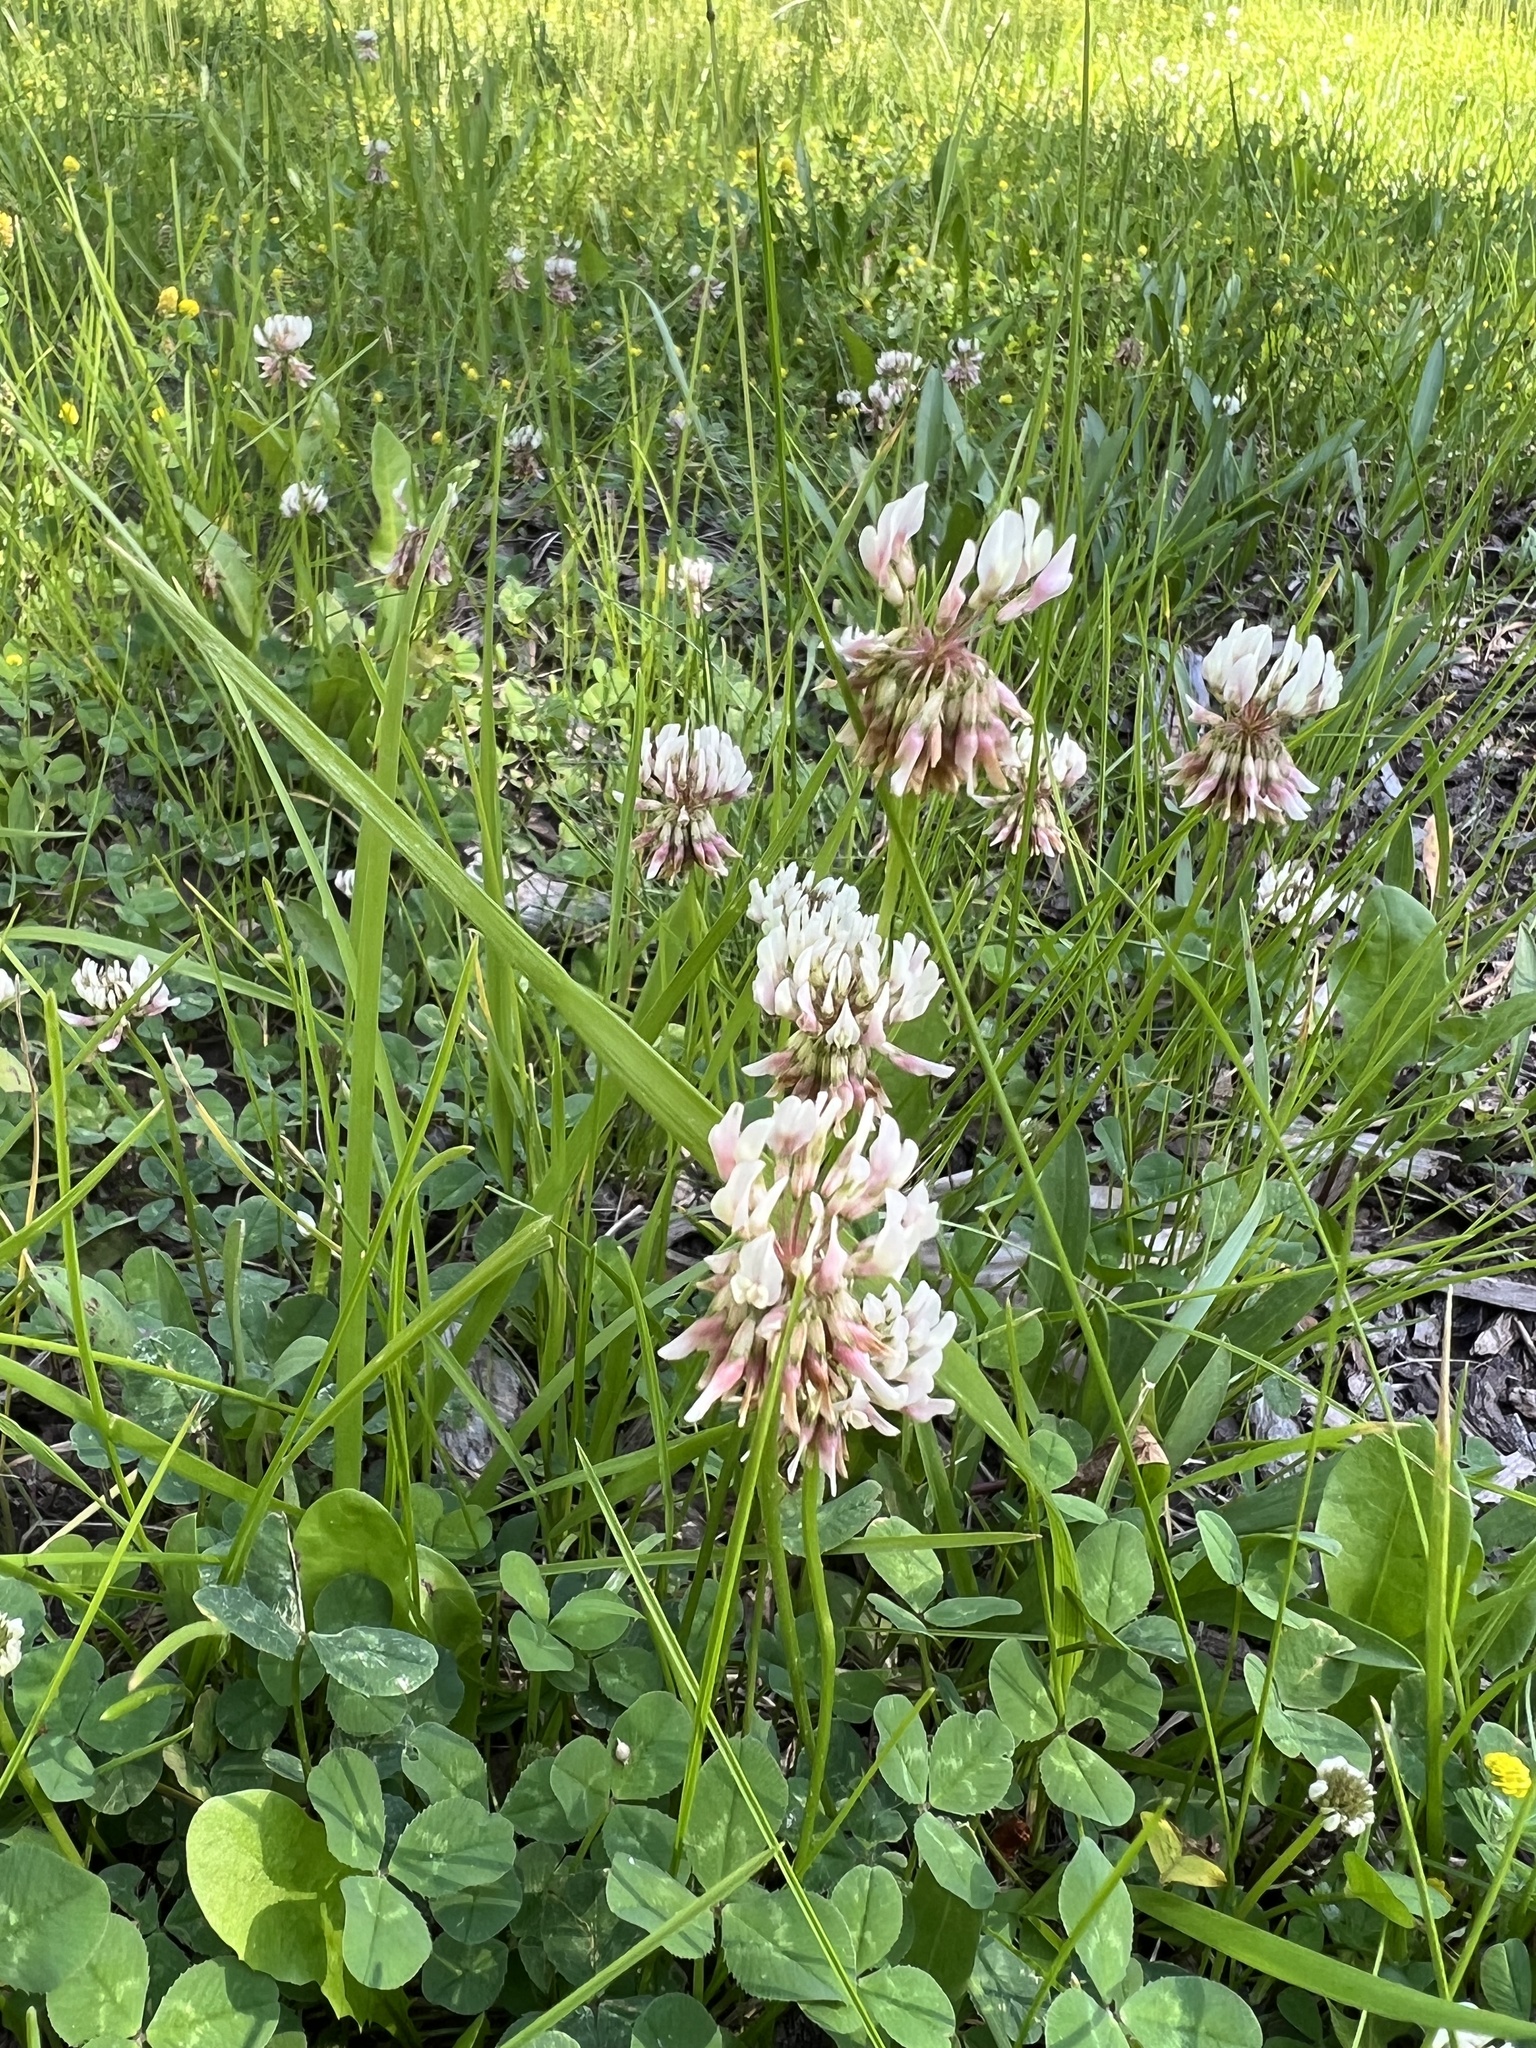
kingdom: Plantae
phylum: Tracheophyta
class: Magnoliopsida
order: Fabales
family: Fabaceae
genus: Trifolium
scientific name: Trifolium repens
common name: White clover
